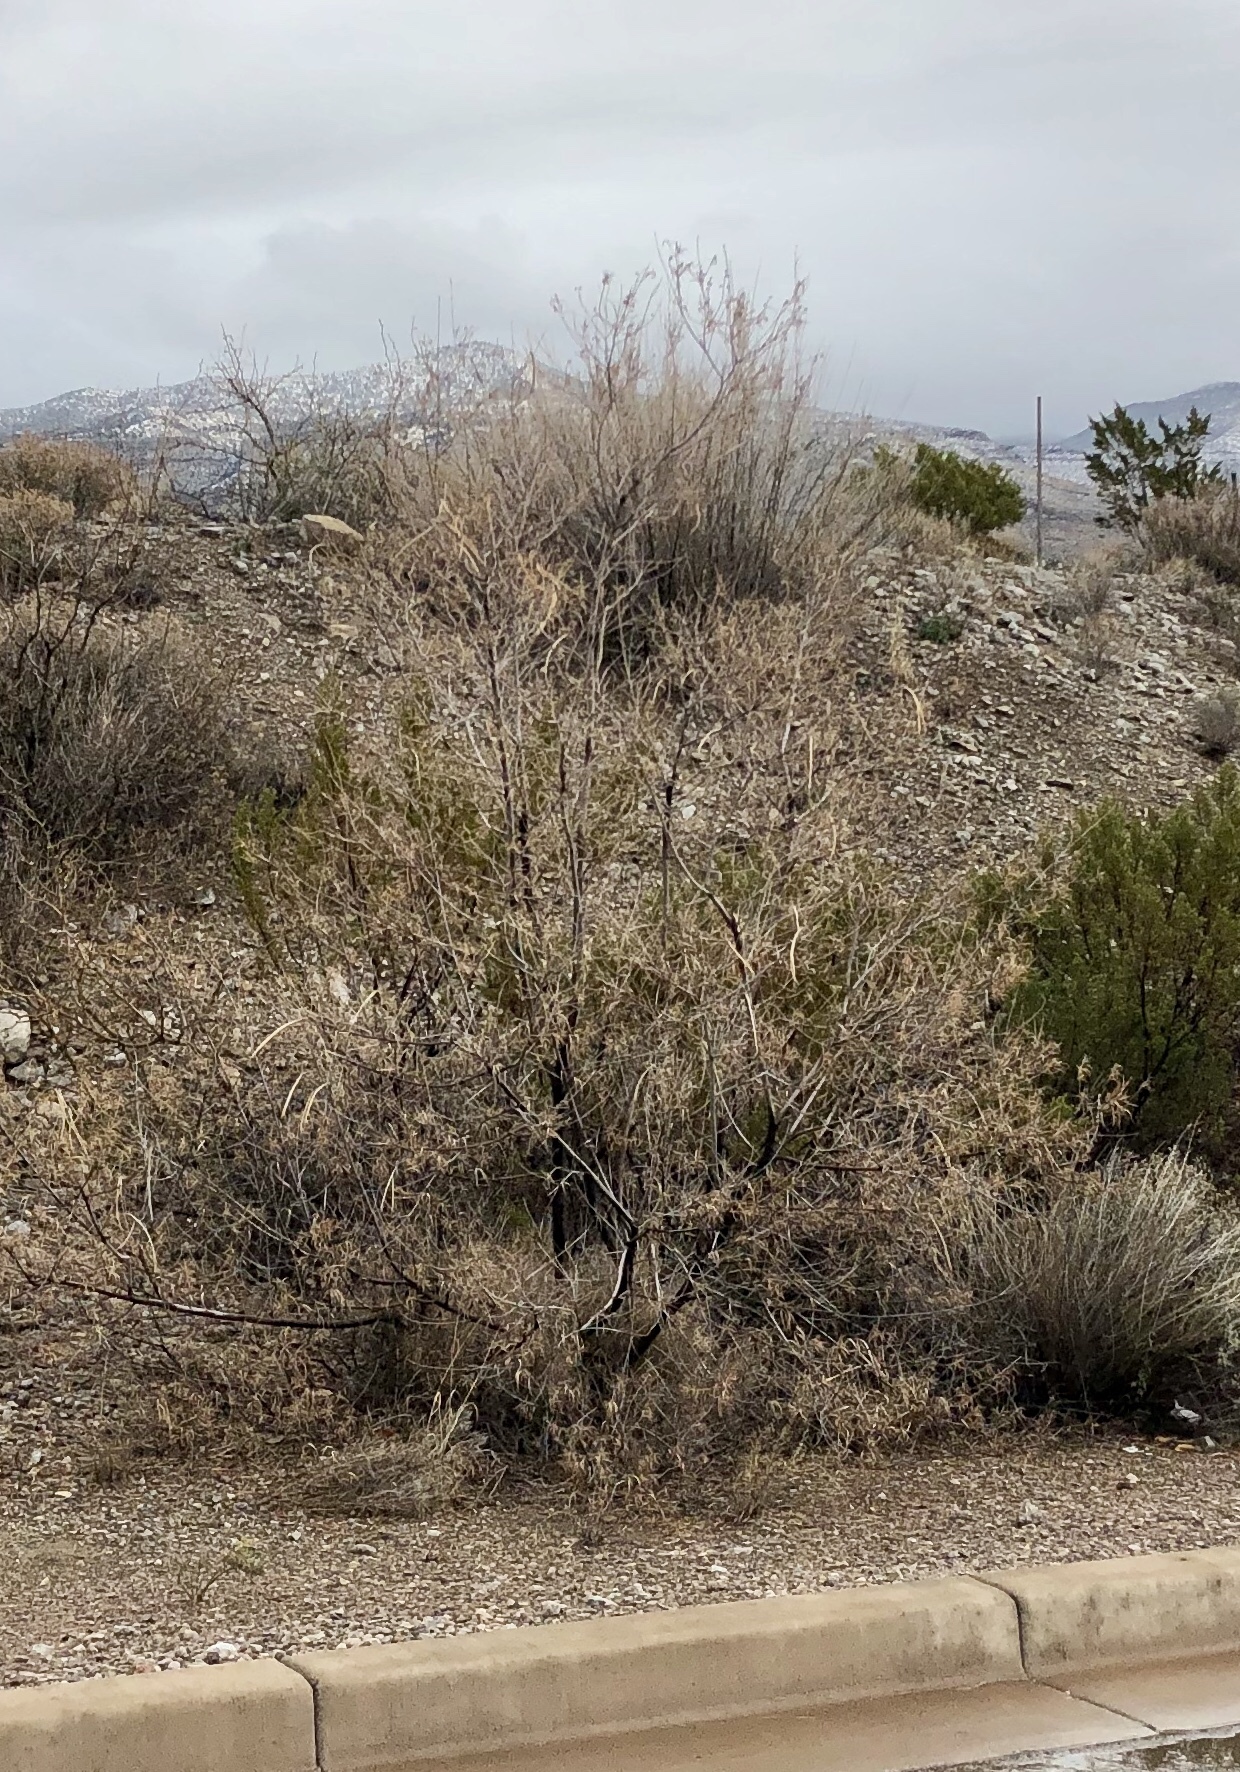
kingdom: Plantae
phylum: Tracheophyta
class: Magnoliopsida
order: Lamiales
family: Bignoniaceae
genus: Chilopsis
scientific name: Chilopsis linearis
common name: Desert-willow
